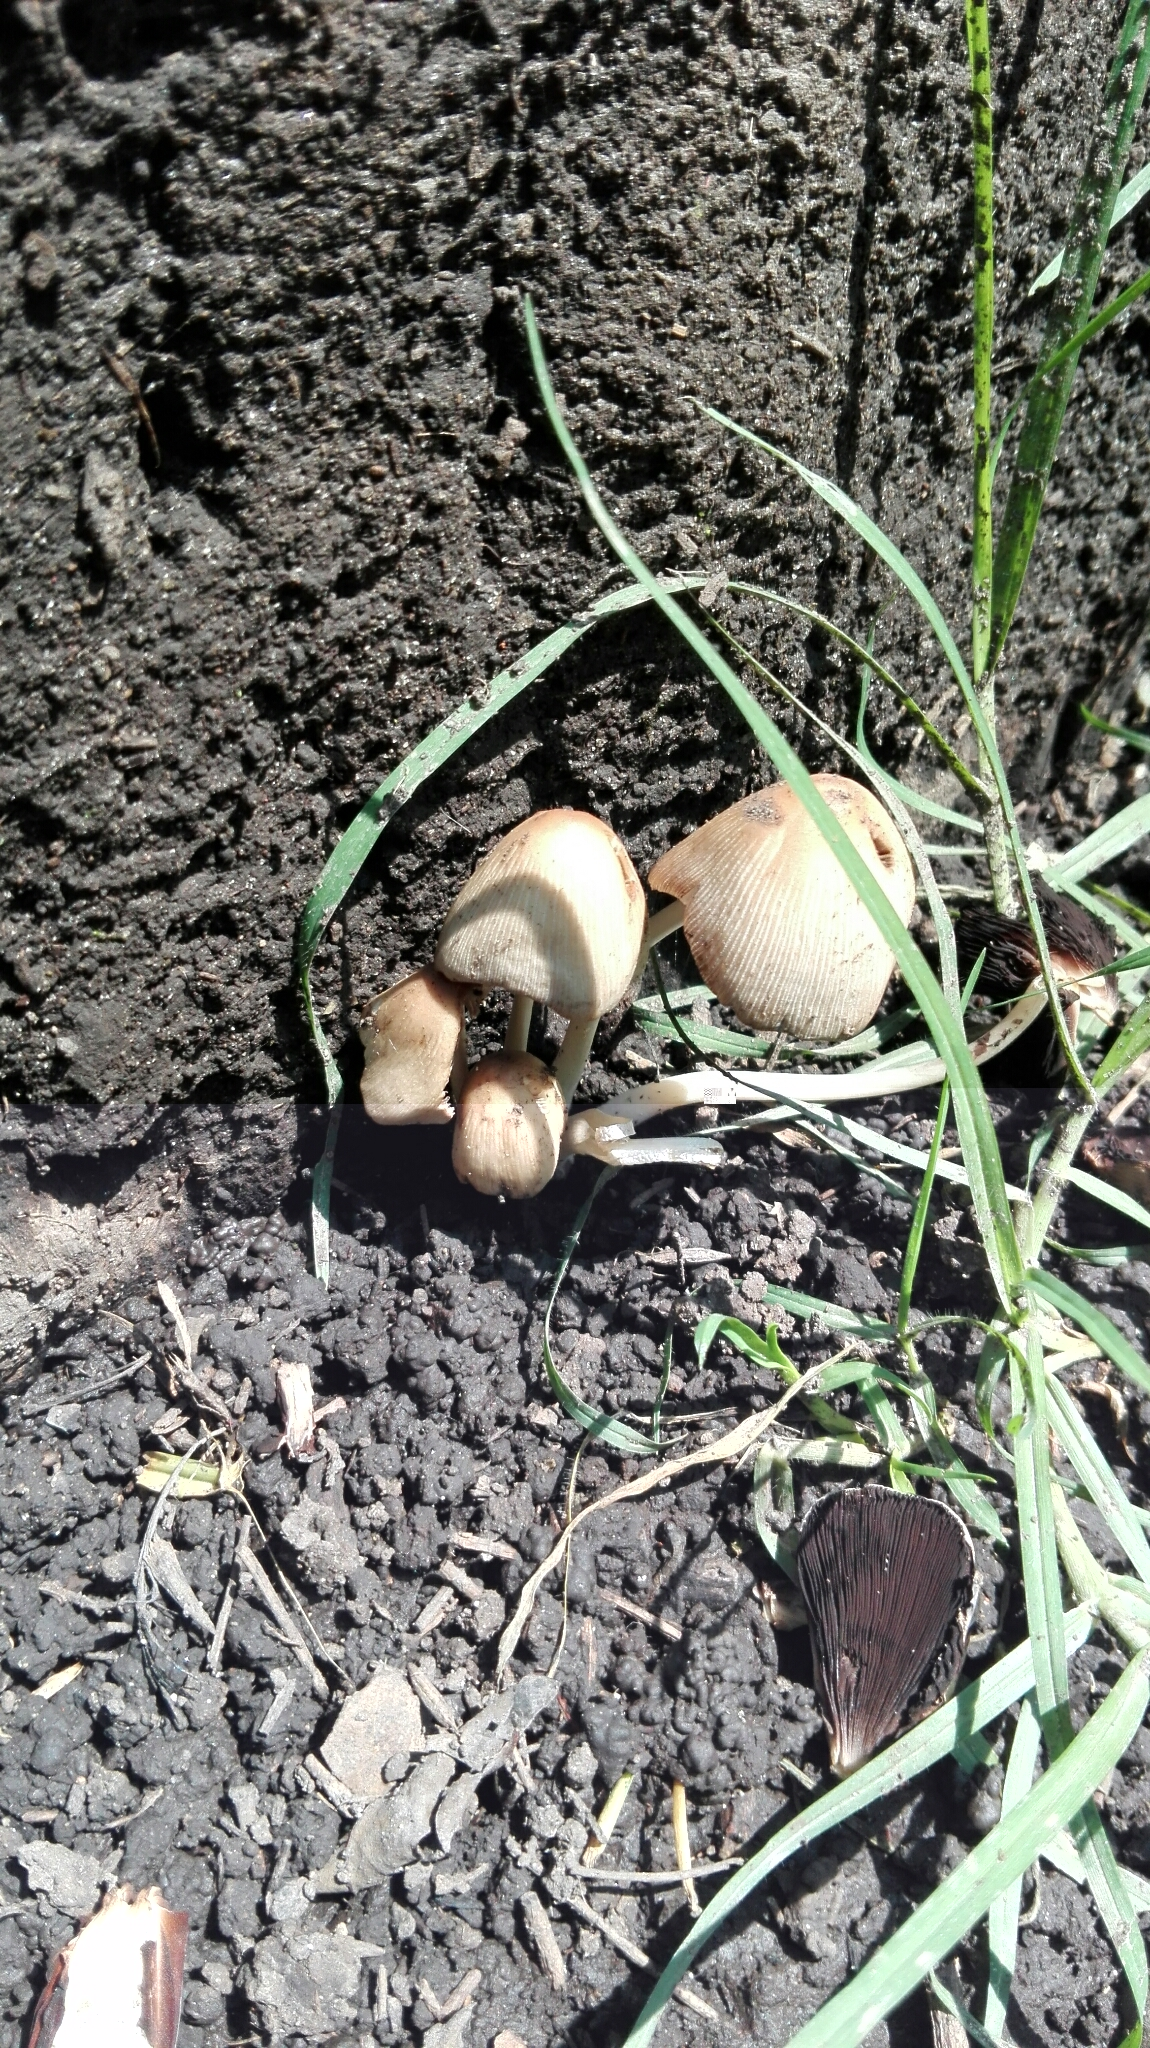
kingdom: Fungi
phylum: Basidiomycota
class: Agaricomycetes
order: Agaricales
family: Psathyrellaceae
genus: Coprinellus
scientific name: Coprinellus micaceus
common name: Glistening ink-cap
